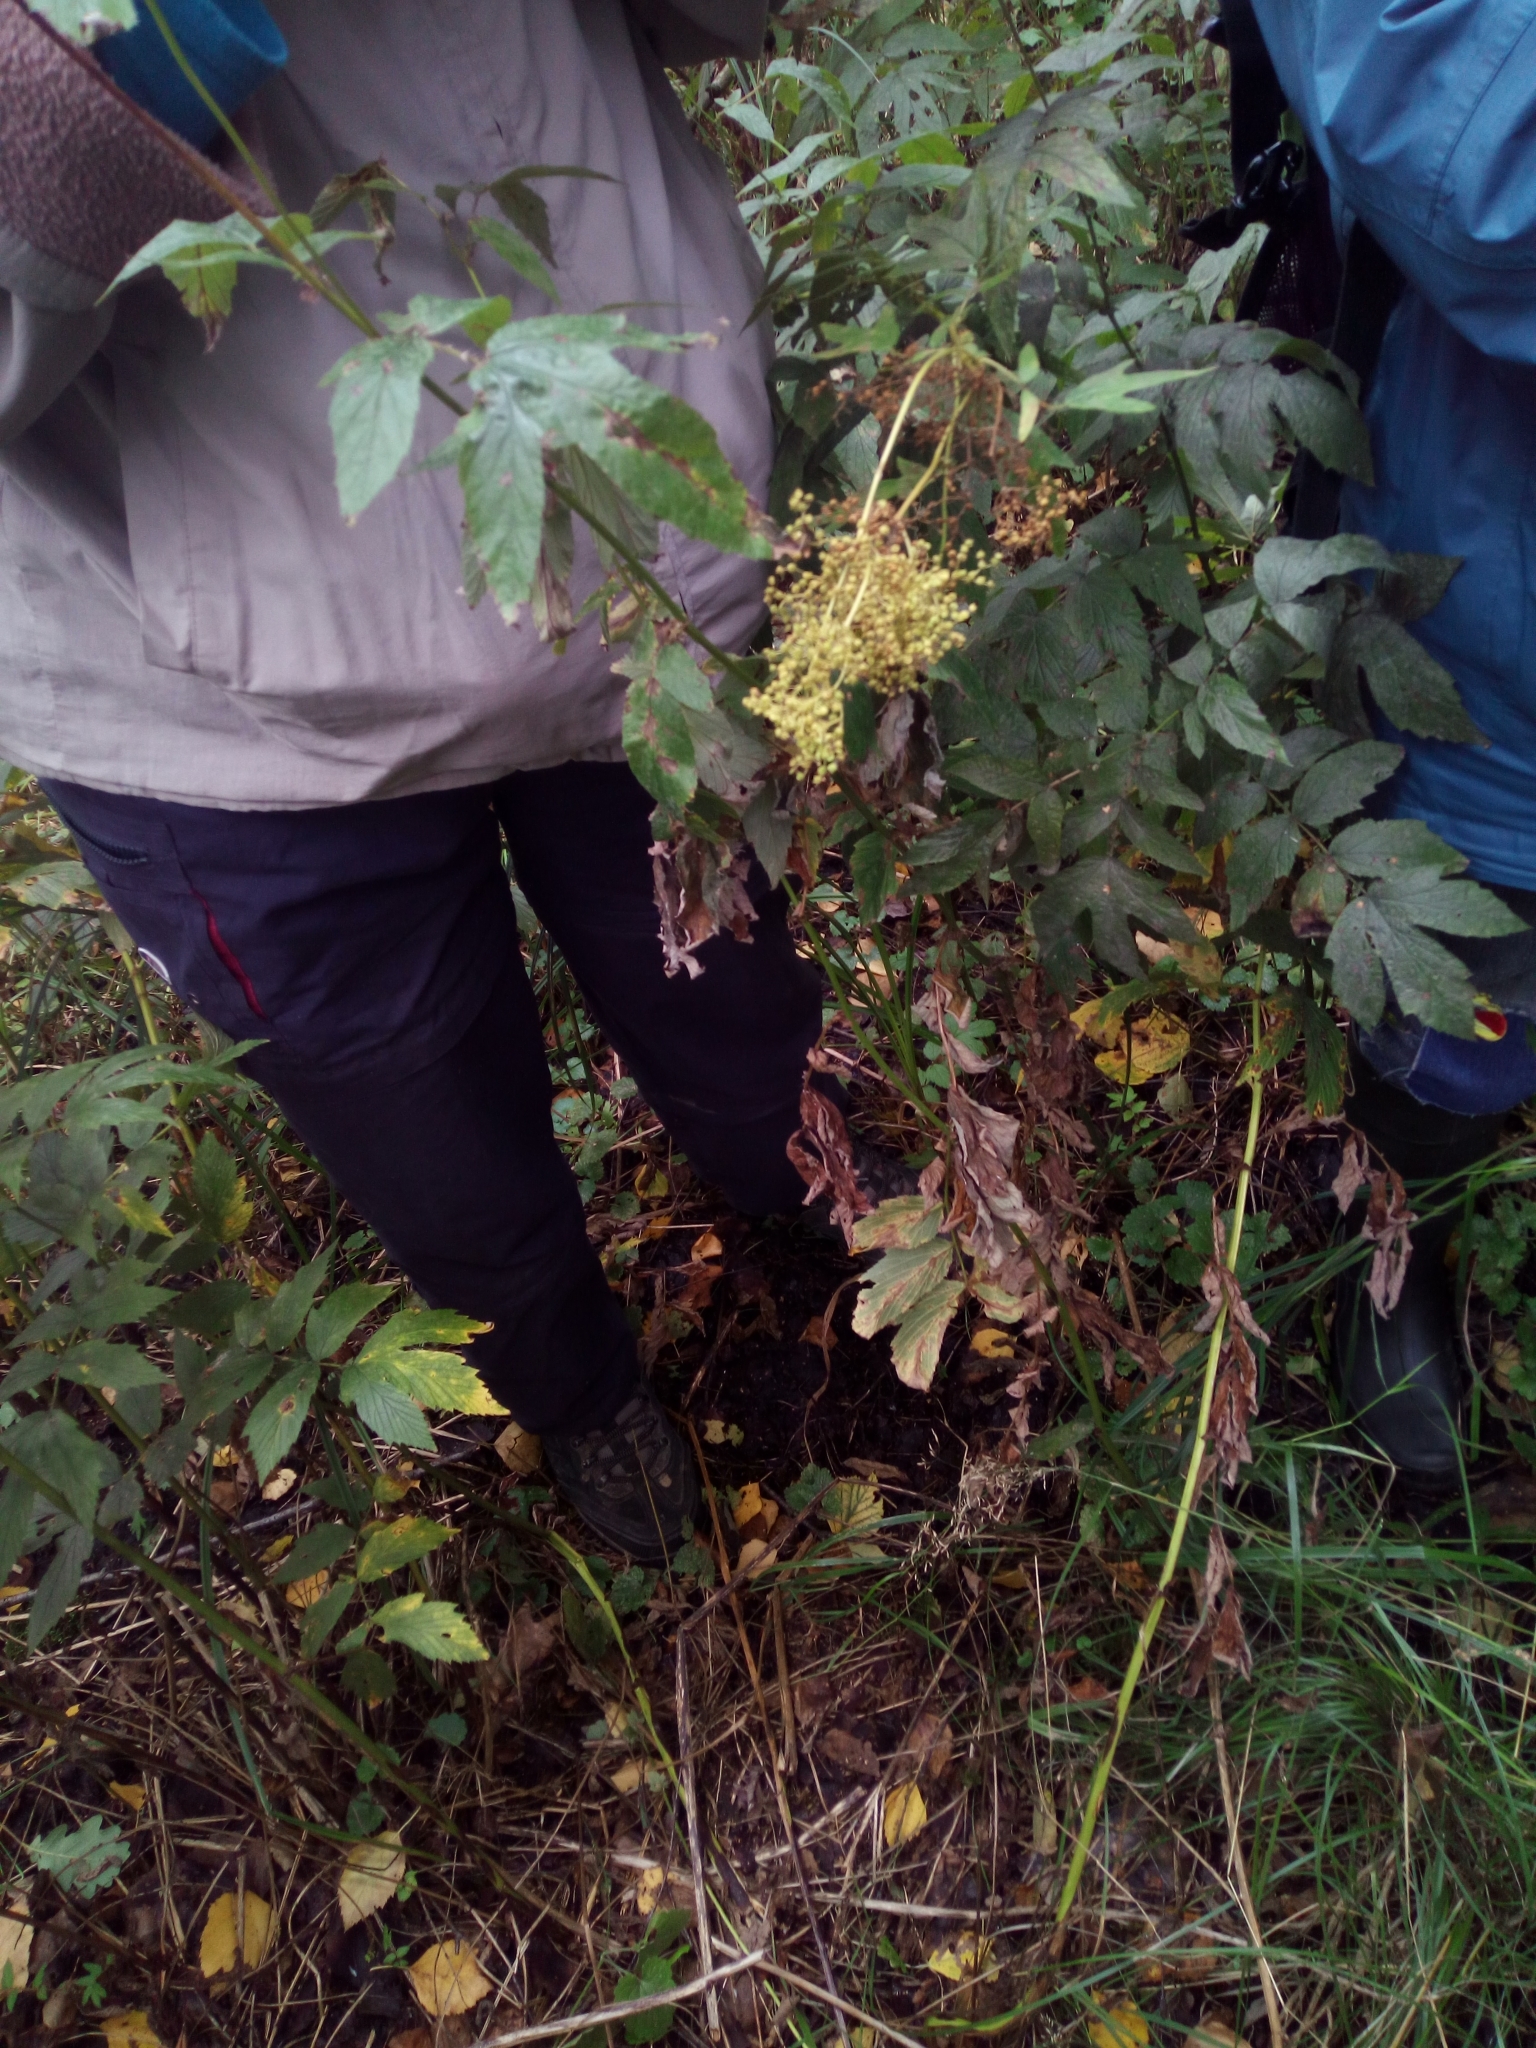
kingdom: Plantae
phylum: Tracheophyta
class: Magnoliopsida
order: Rosales
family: Rosaceae
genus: Filipendula
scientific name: Filipendula ulmaria
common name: Meadowsweet
